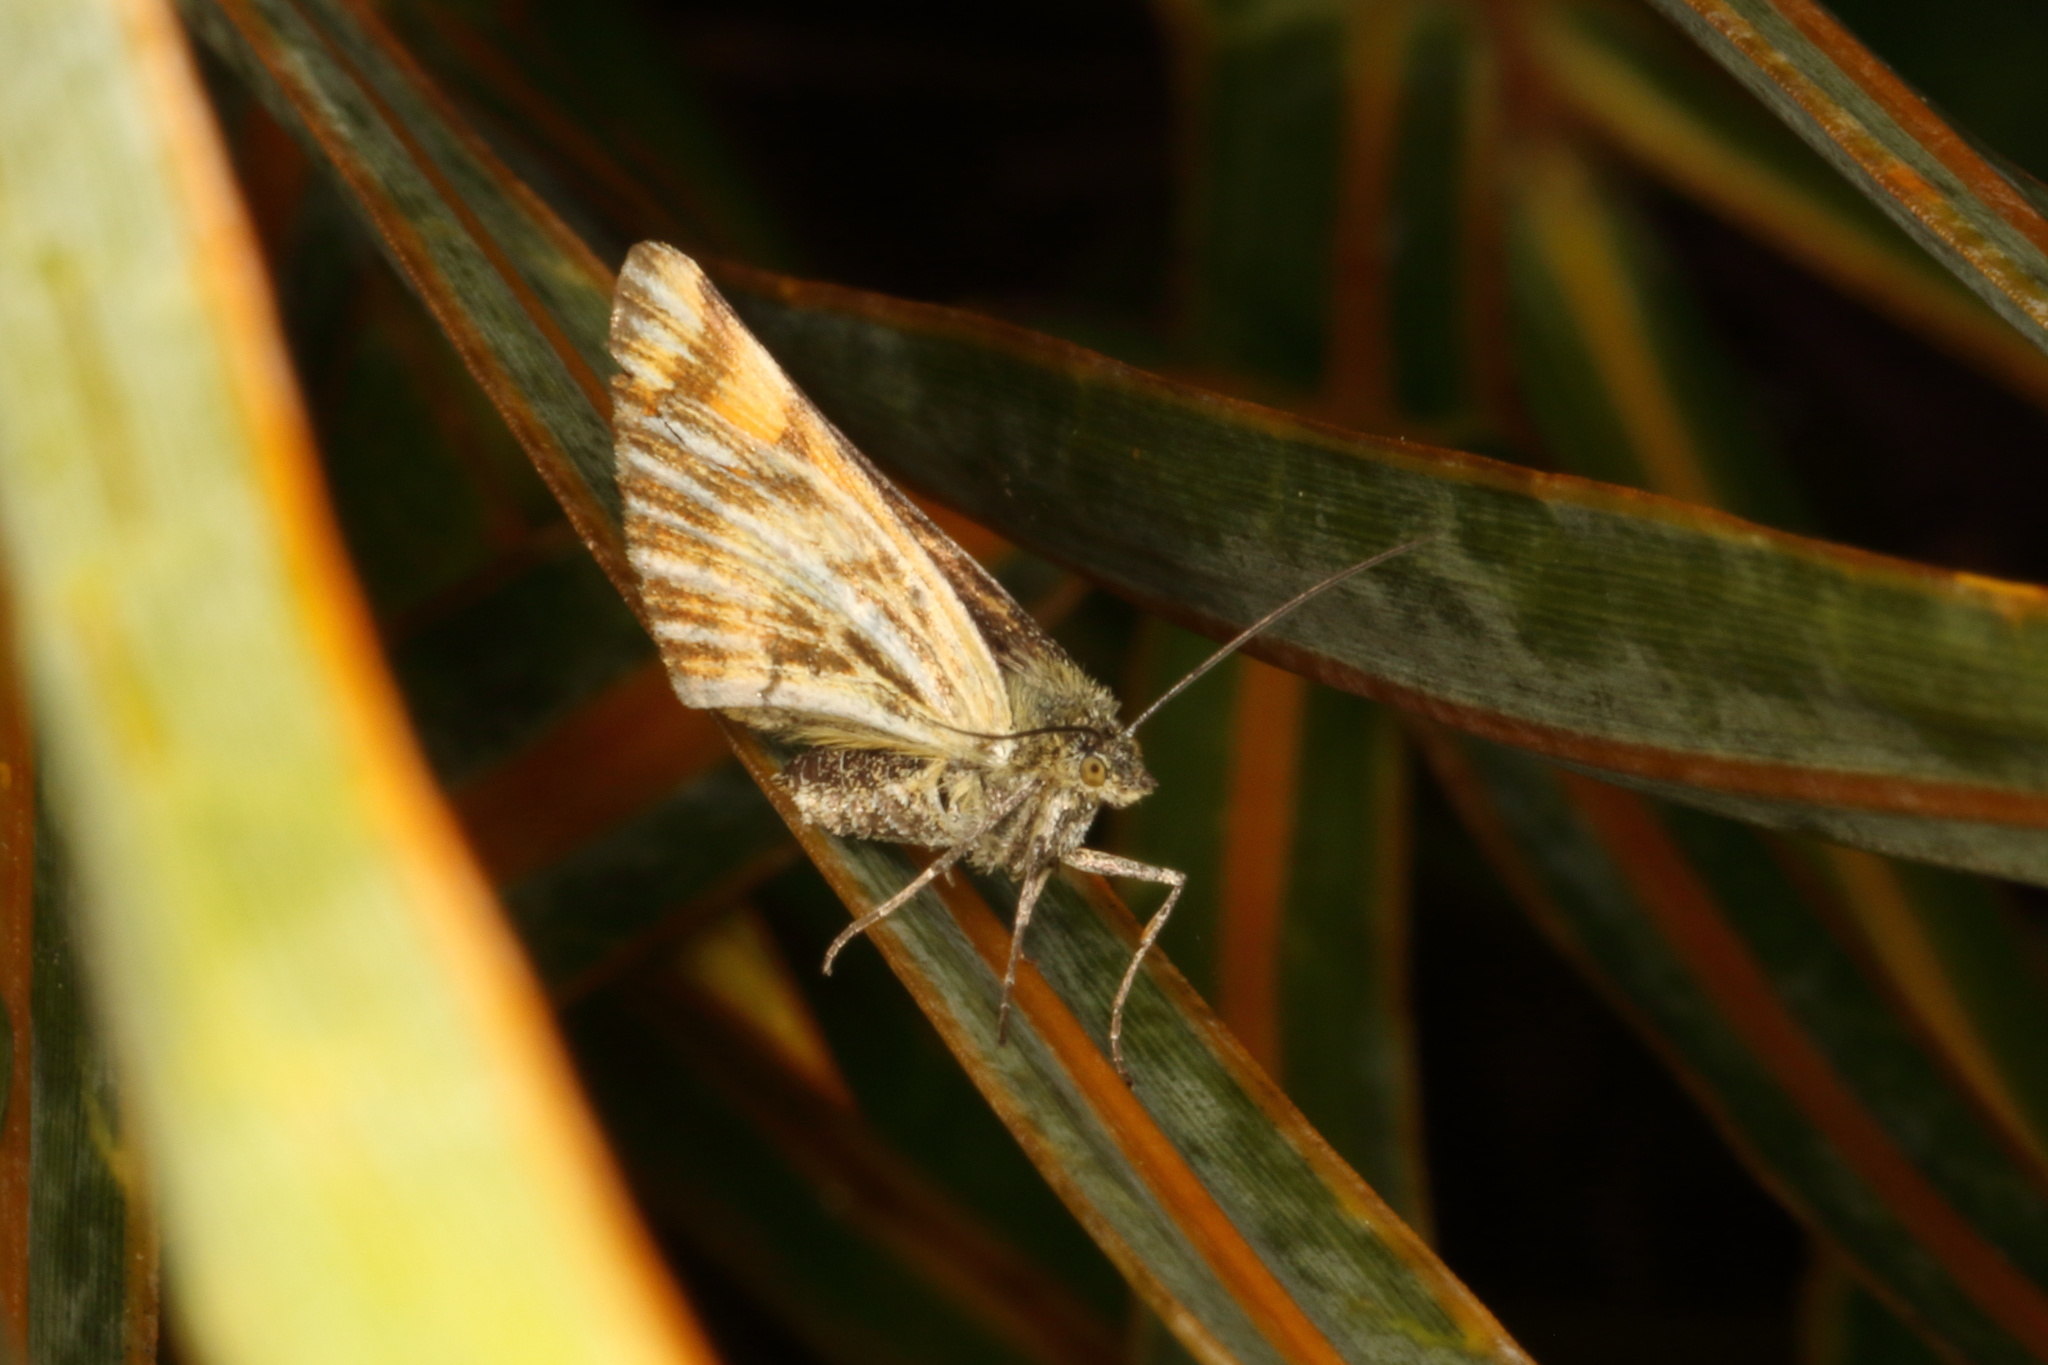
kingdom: Animalia
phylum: Arthropoda
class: Insecta
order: Lepidoptera
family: Geometridae
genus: Dasyuris
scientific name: Dasyuris partheniata
